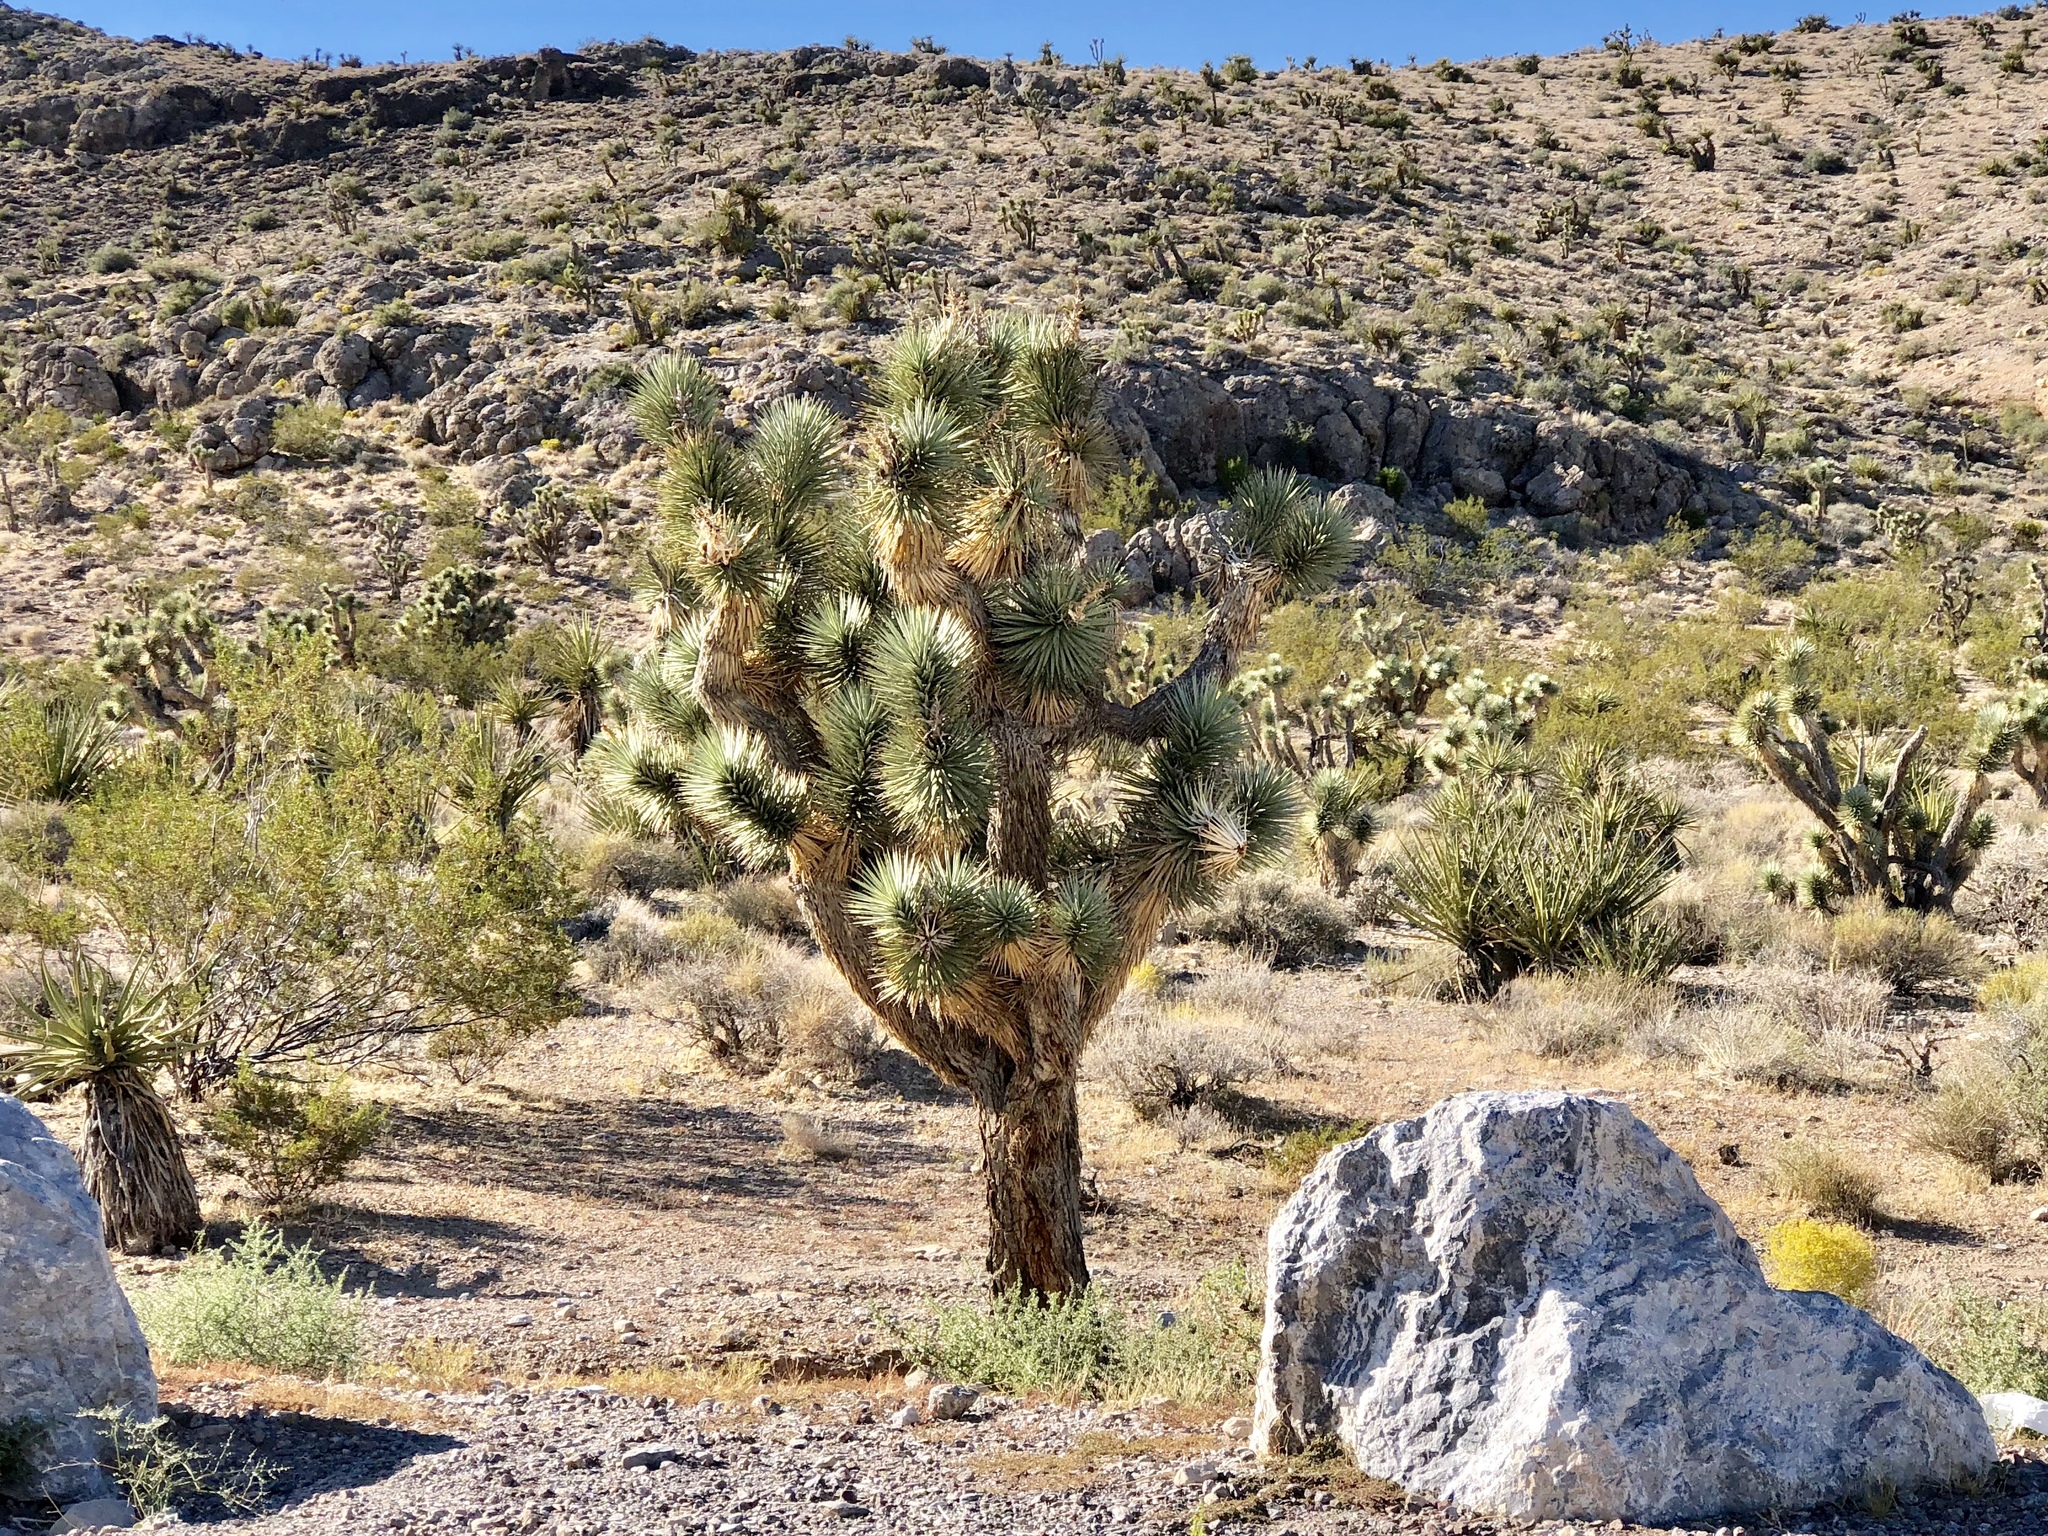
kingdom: Plantae
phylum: Tracheophyta
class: Liliopsida
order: Asparagales
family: Asparagaceae
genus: Yucca
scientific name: Yucca brevifolia
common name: Joshua tree
